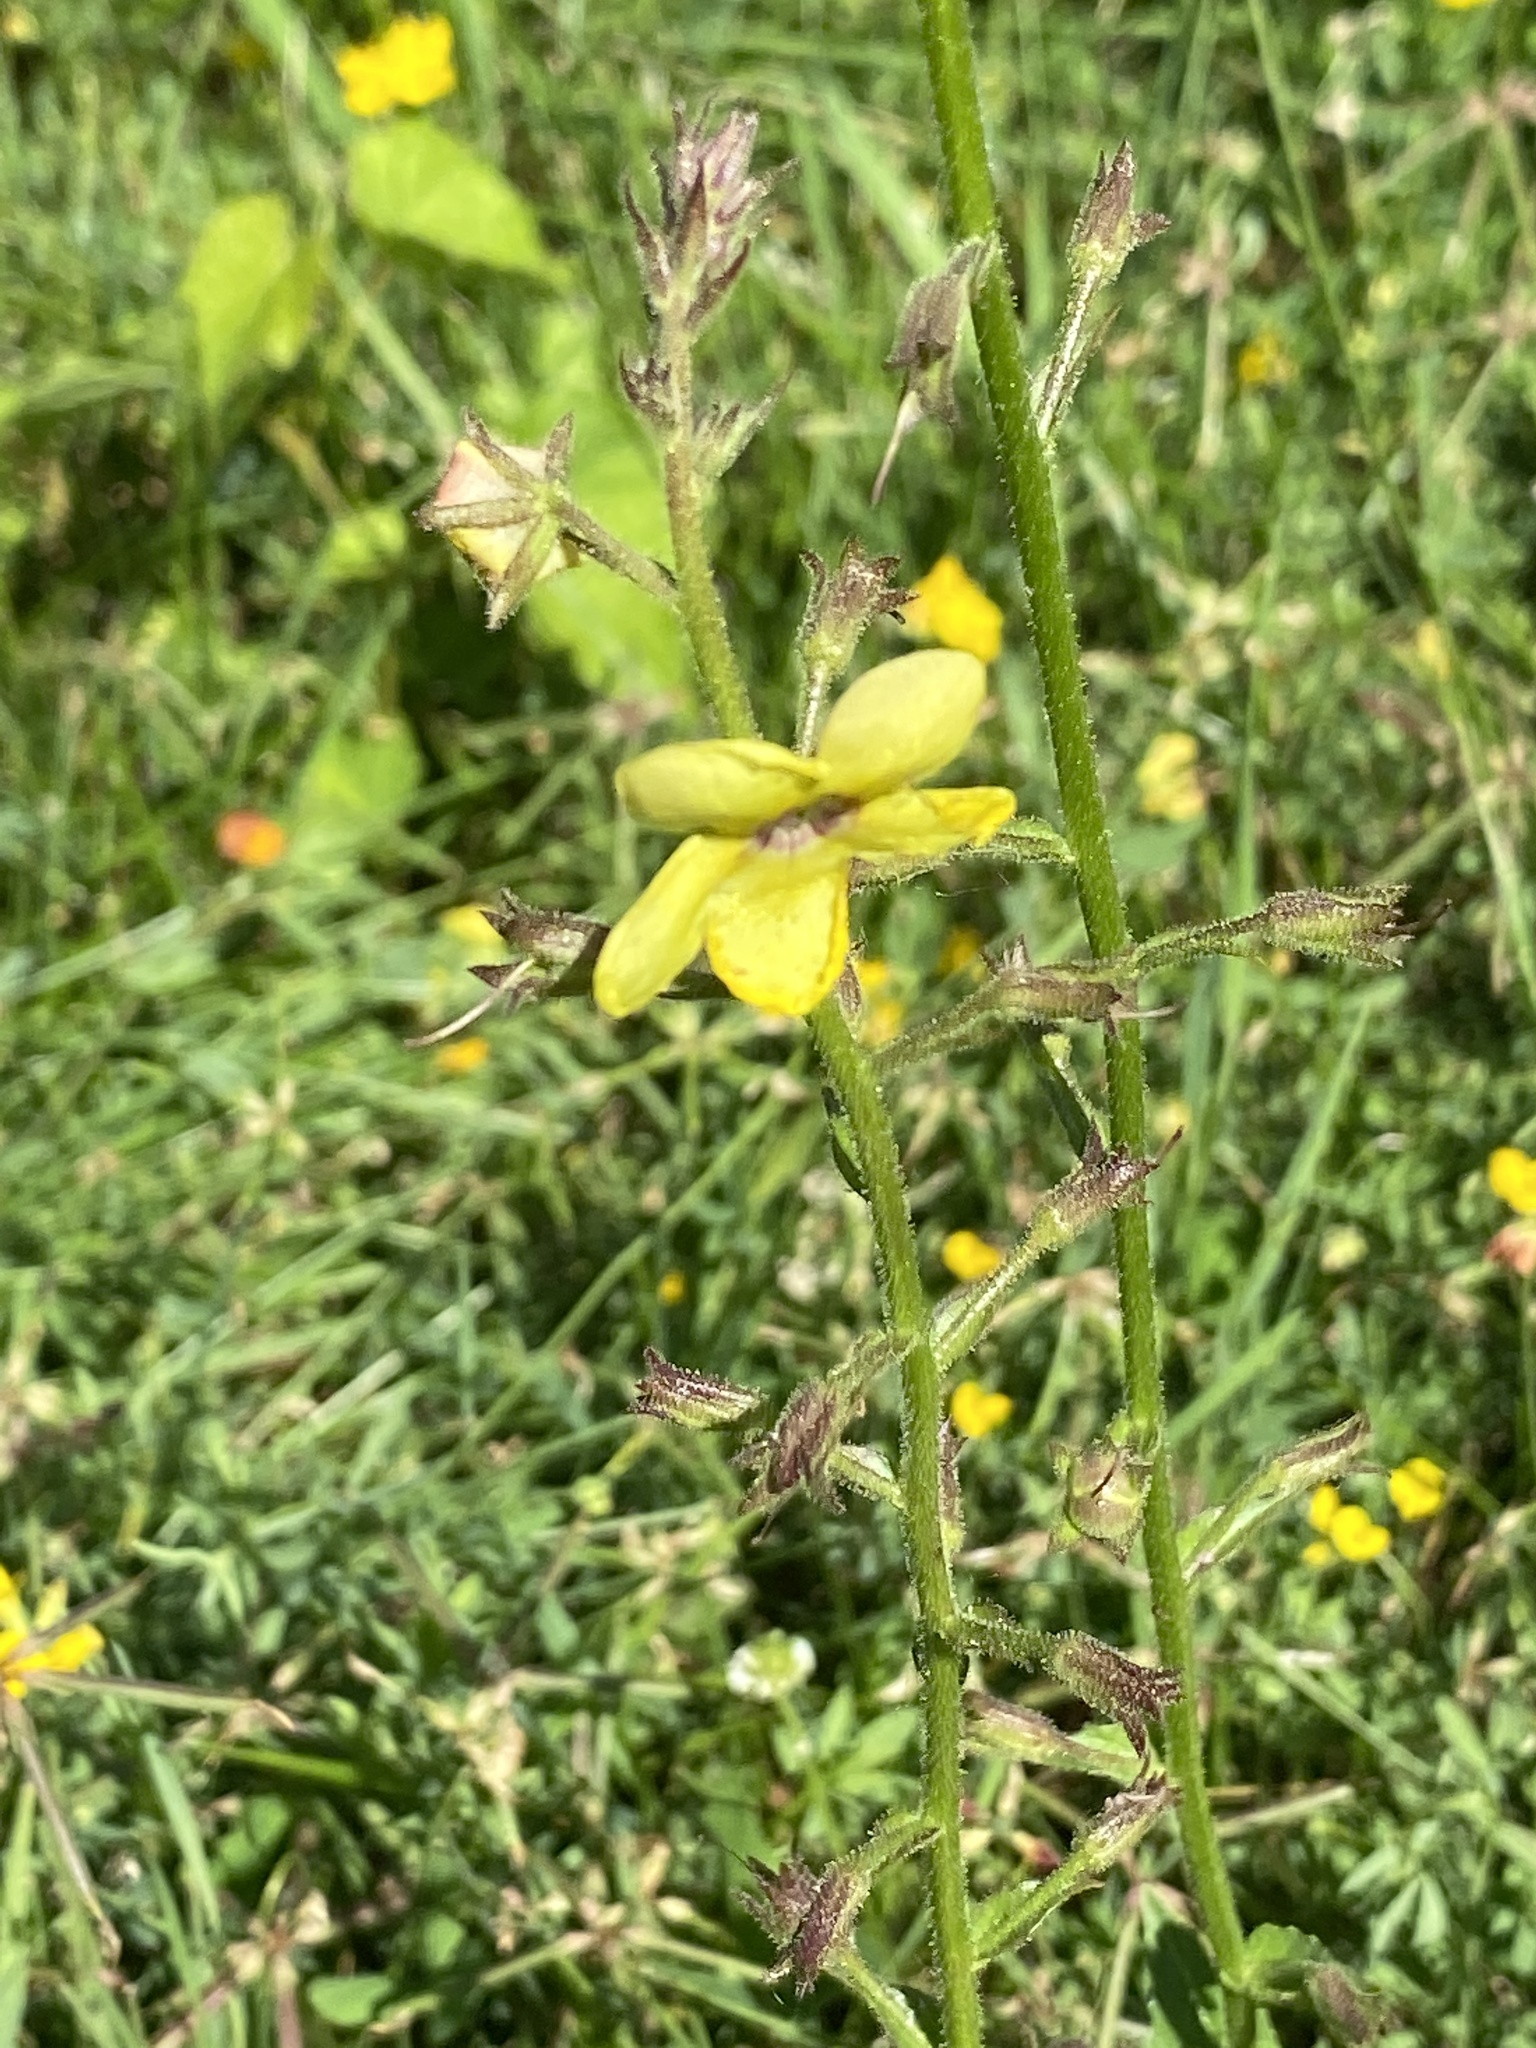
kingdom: Plantae
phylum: Tracheophyta
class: Magnoliopsida
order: Lamiales
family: Scrophulariaceae
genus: Verbascum
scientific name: Verbascum blattaria
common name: Moth mullein
